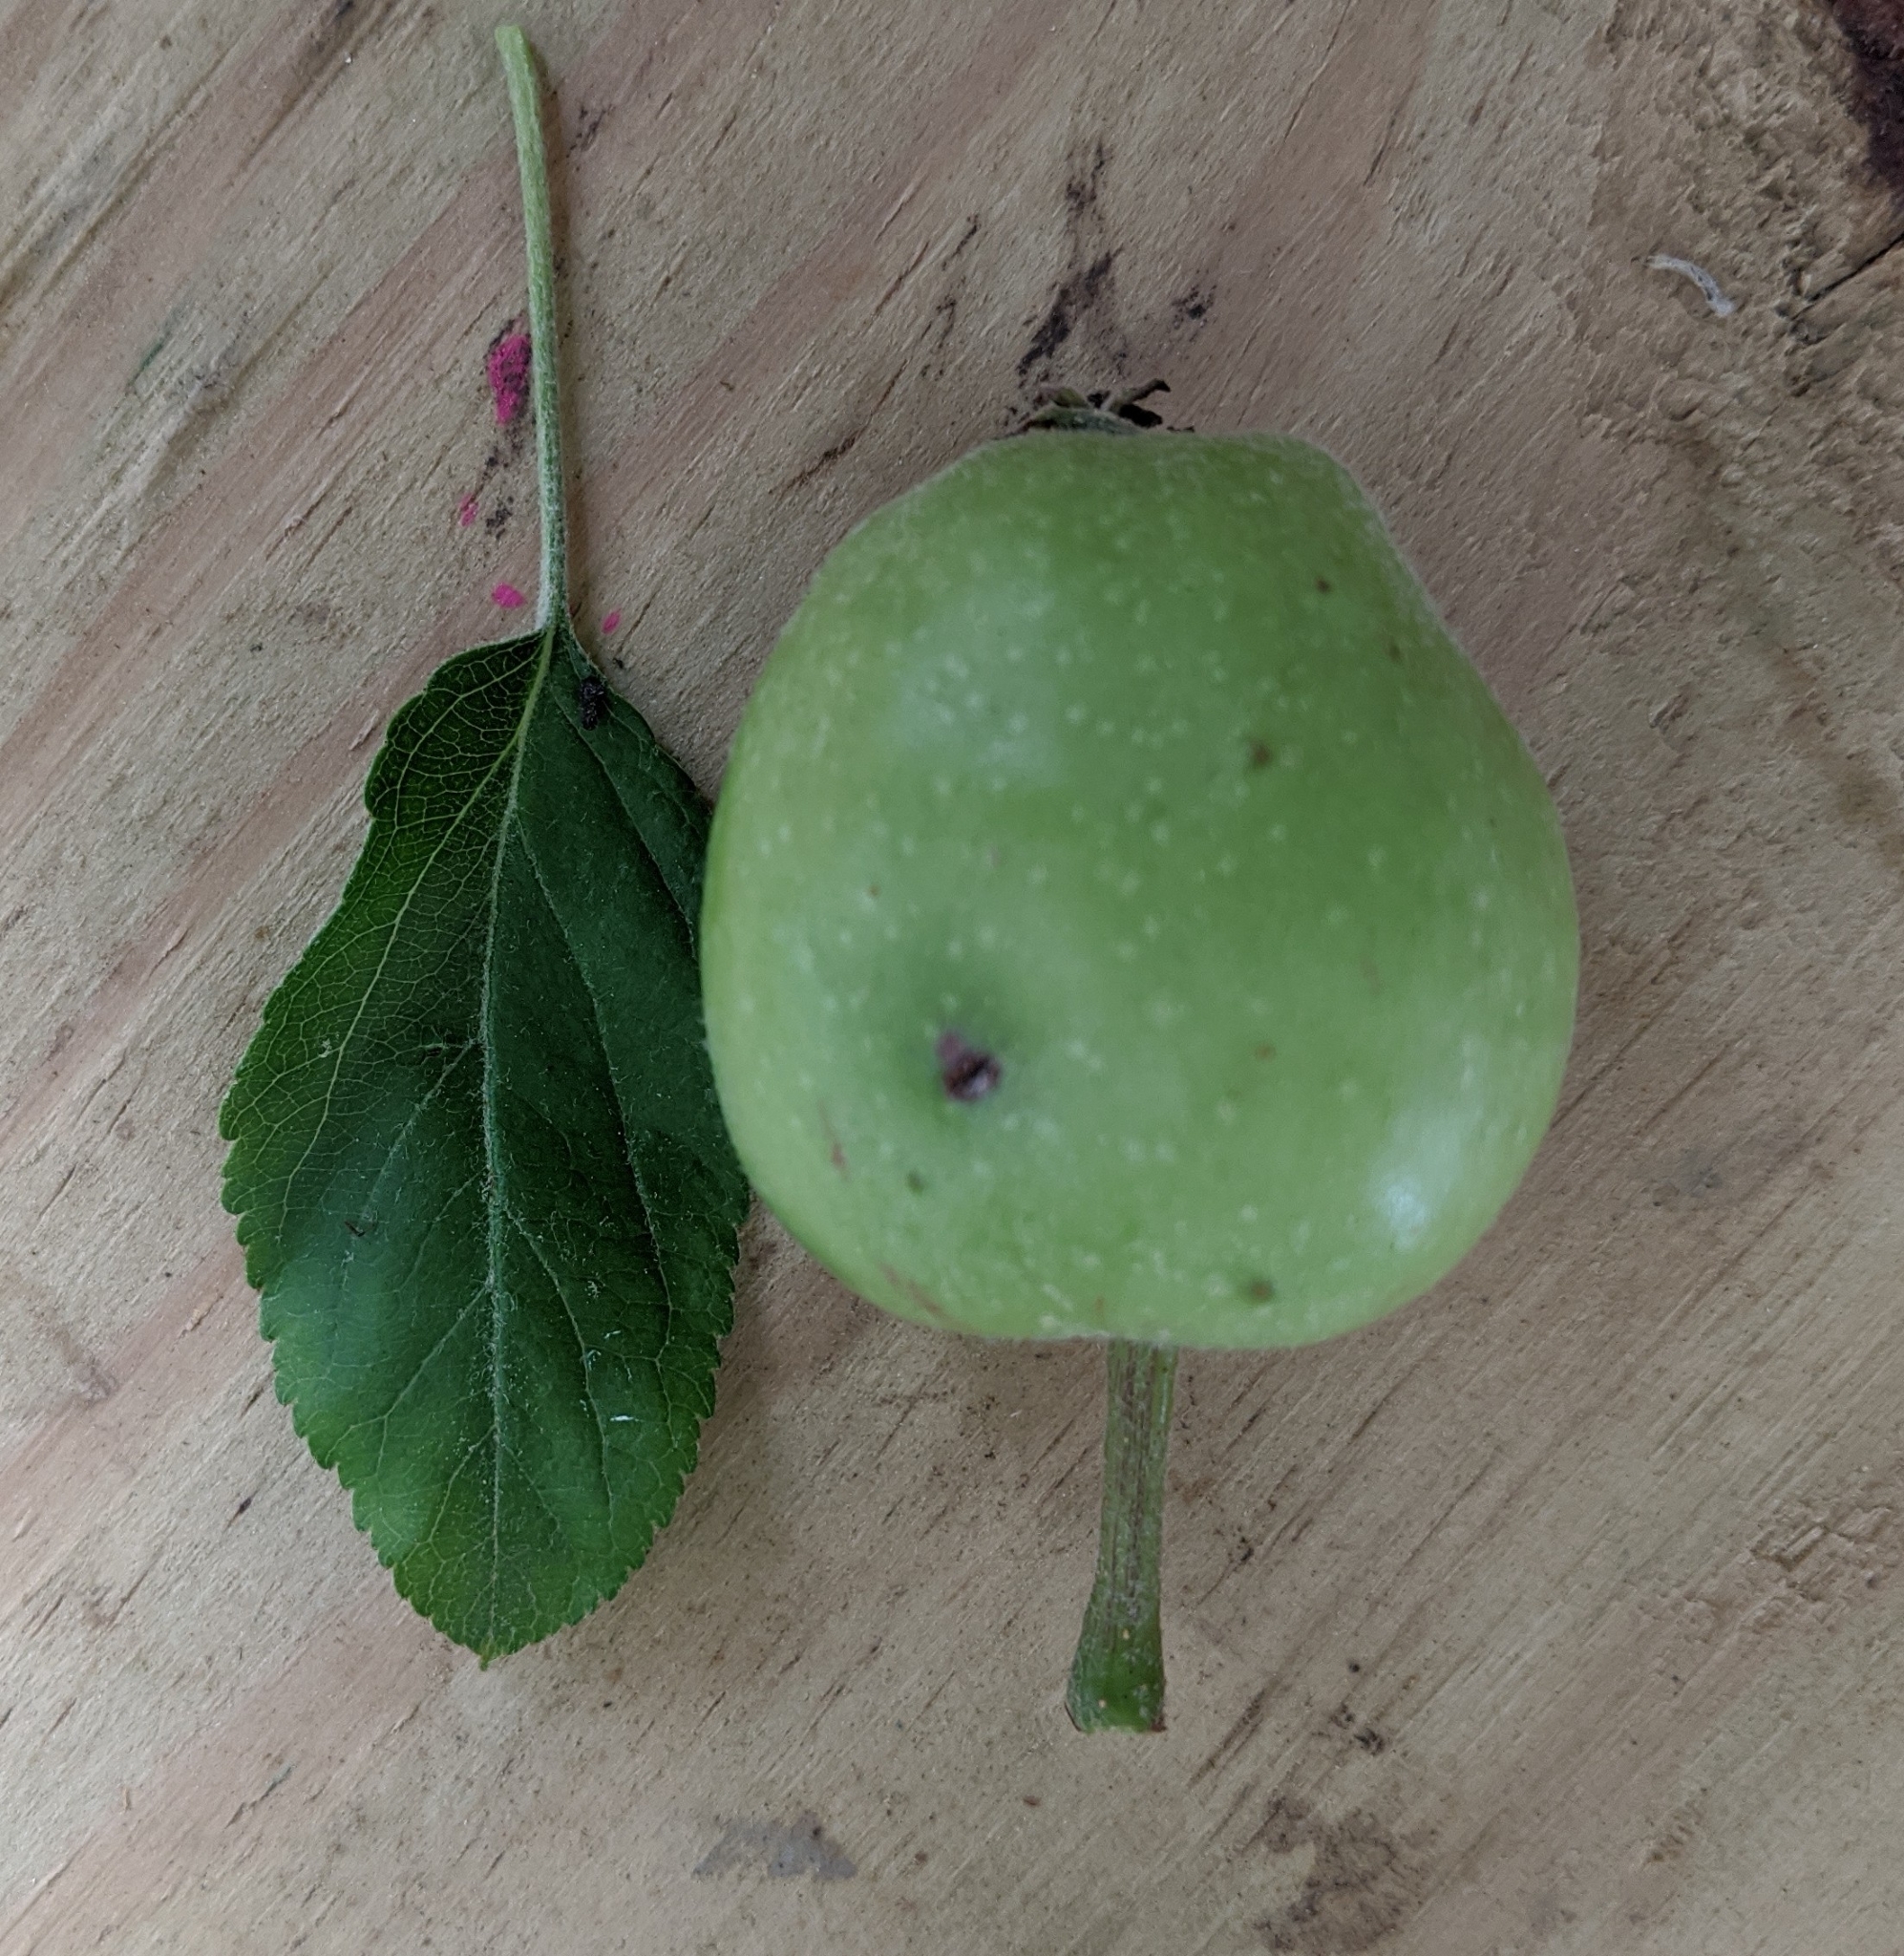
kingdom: Plantae
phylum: Tracheophyta
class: Magnoliopsida
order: Rosales
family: Rosaceae
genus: Malus
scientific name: Malus domestica
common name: Apple
